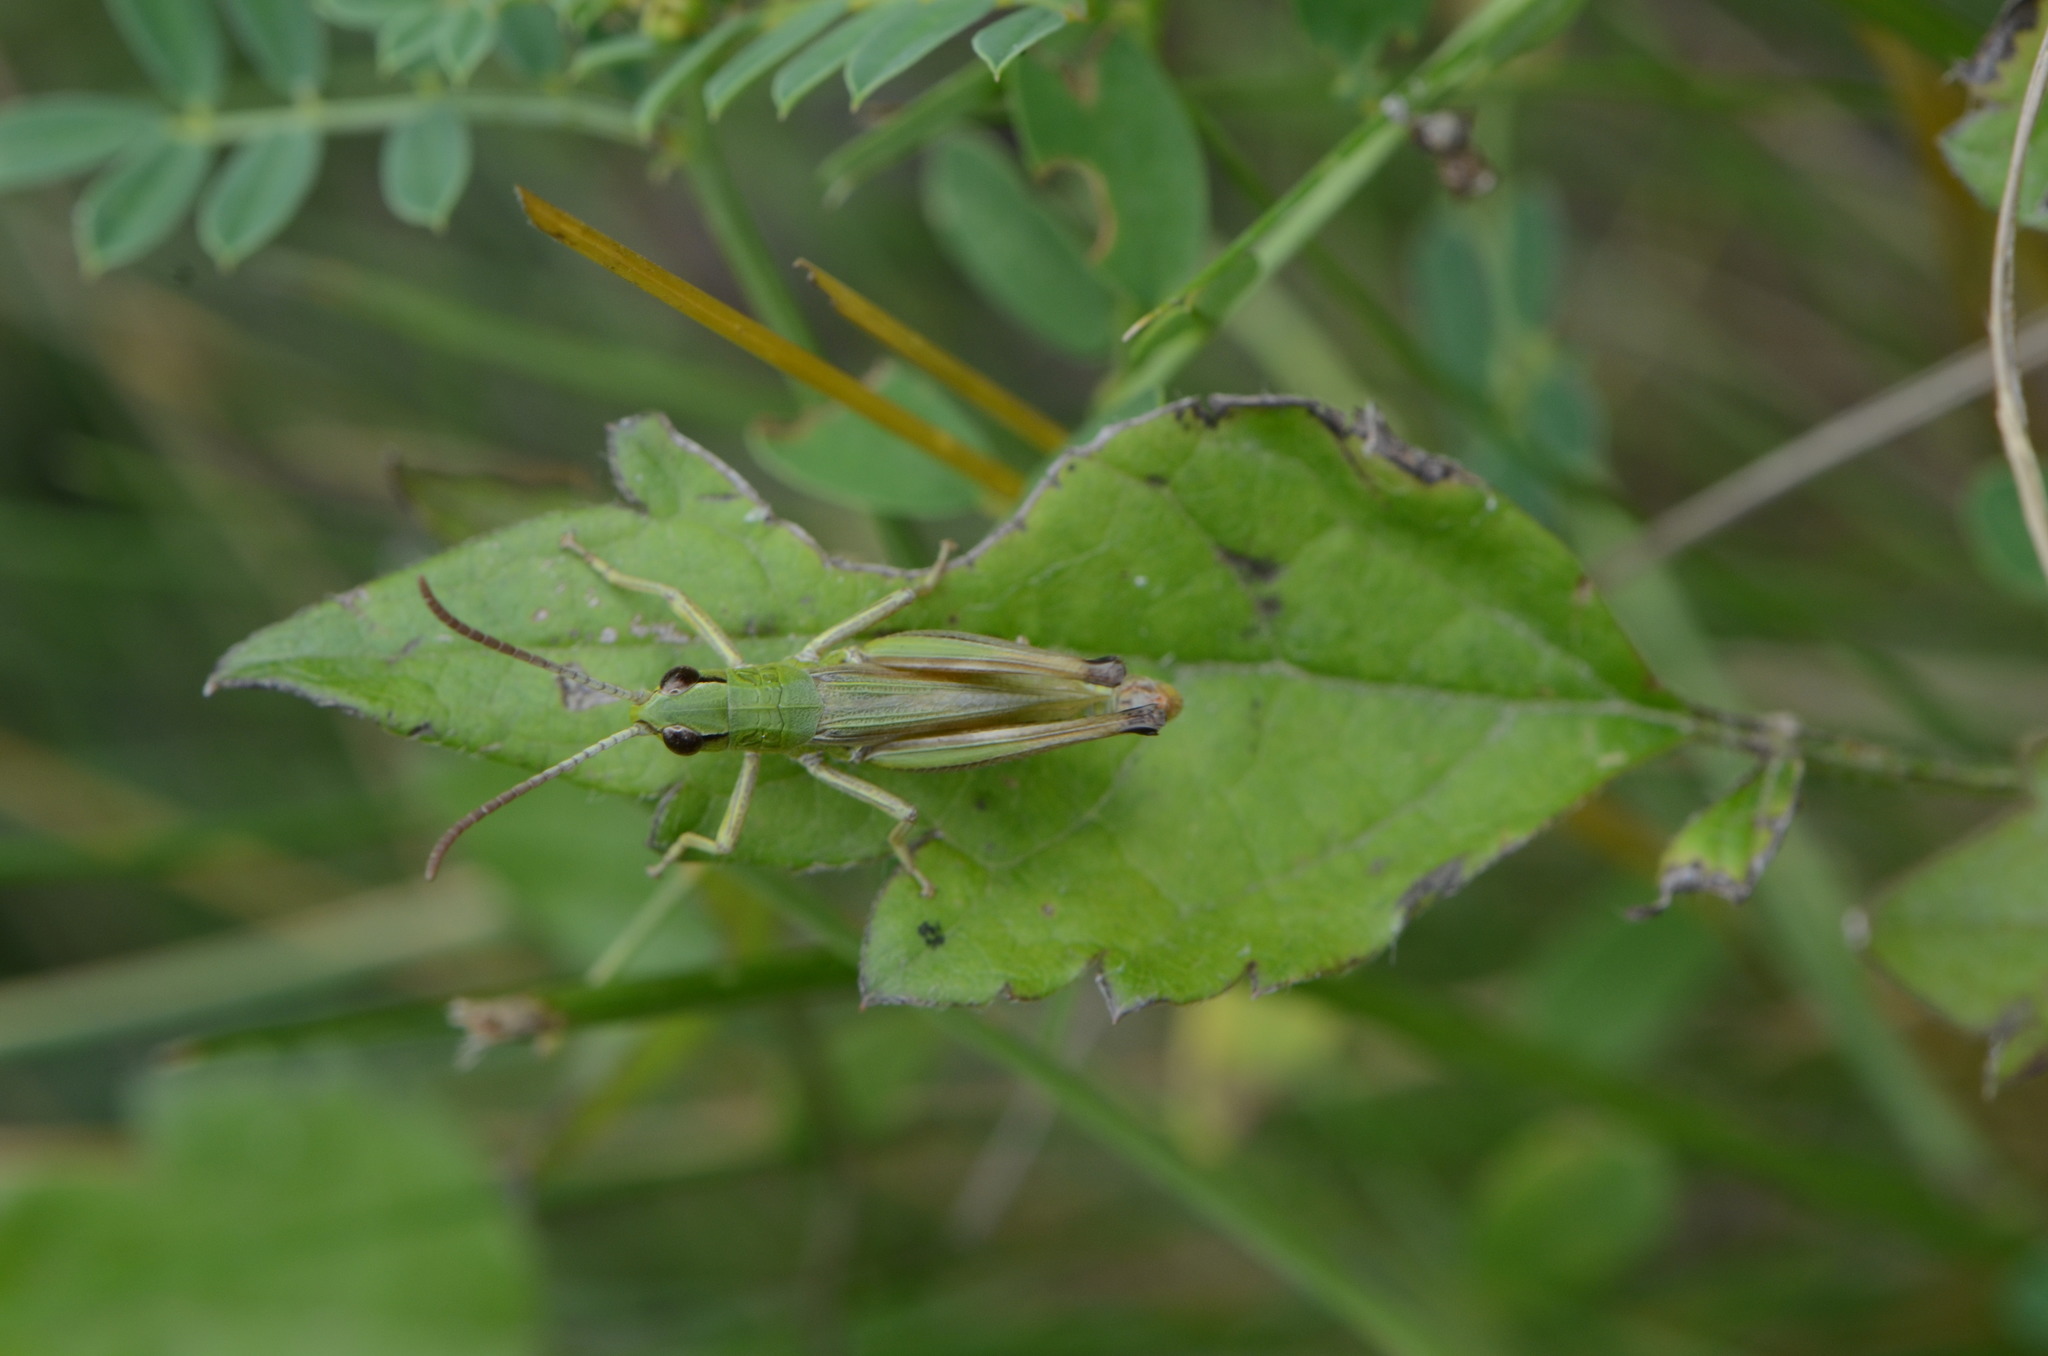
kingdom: Animalia
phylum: Arthropoda
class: Insecta
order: Orthoptera
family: Acrididae
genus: Pseudochorthippus
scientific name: Pseudochorthippus parallelus
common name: Meadow grasshopper
